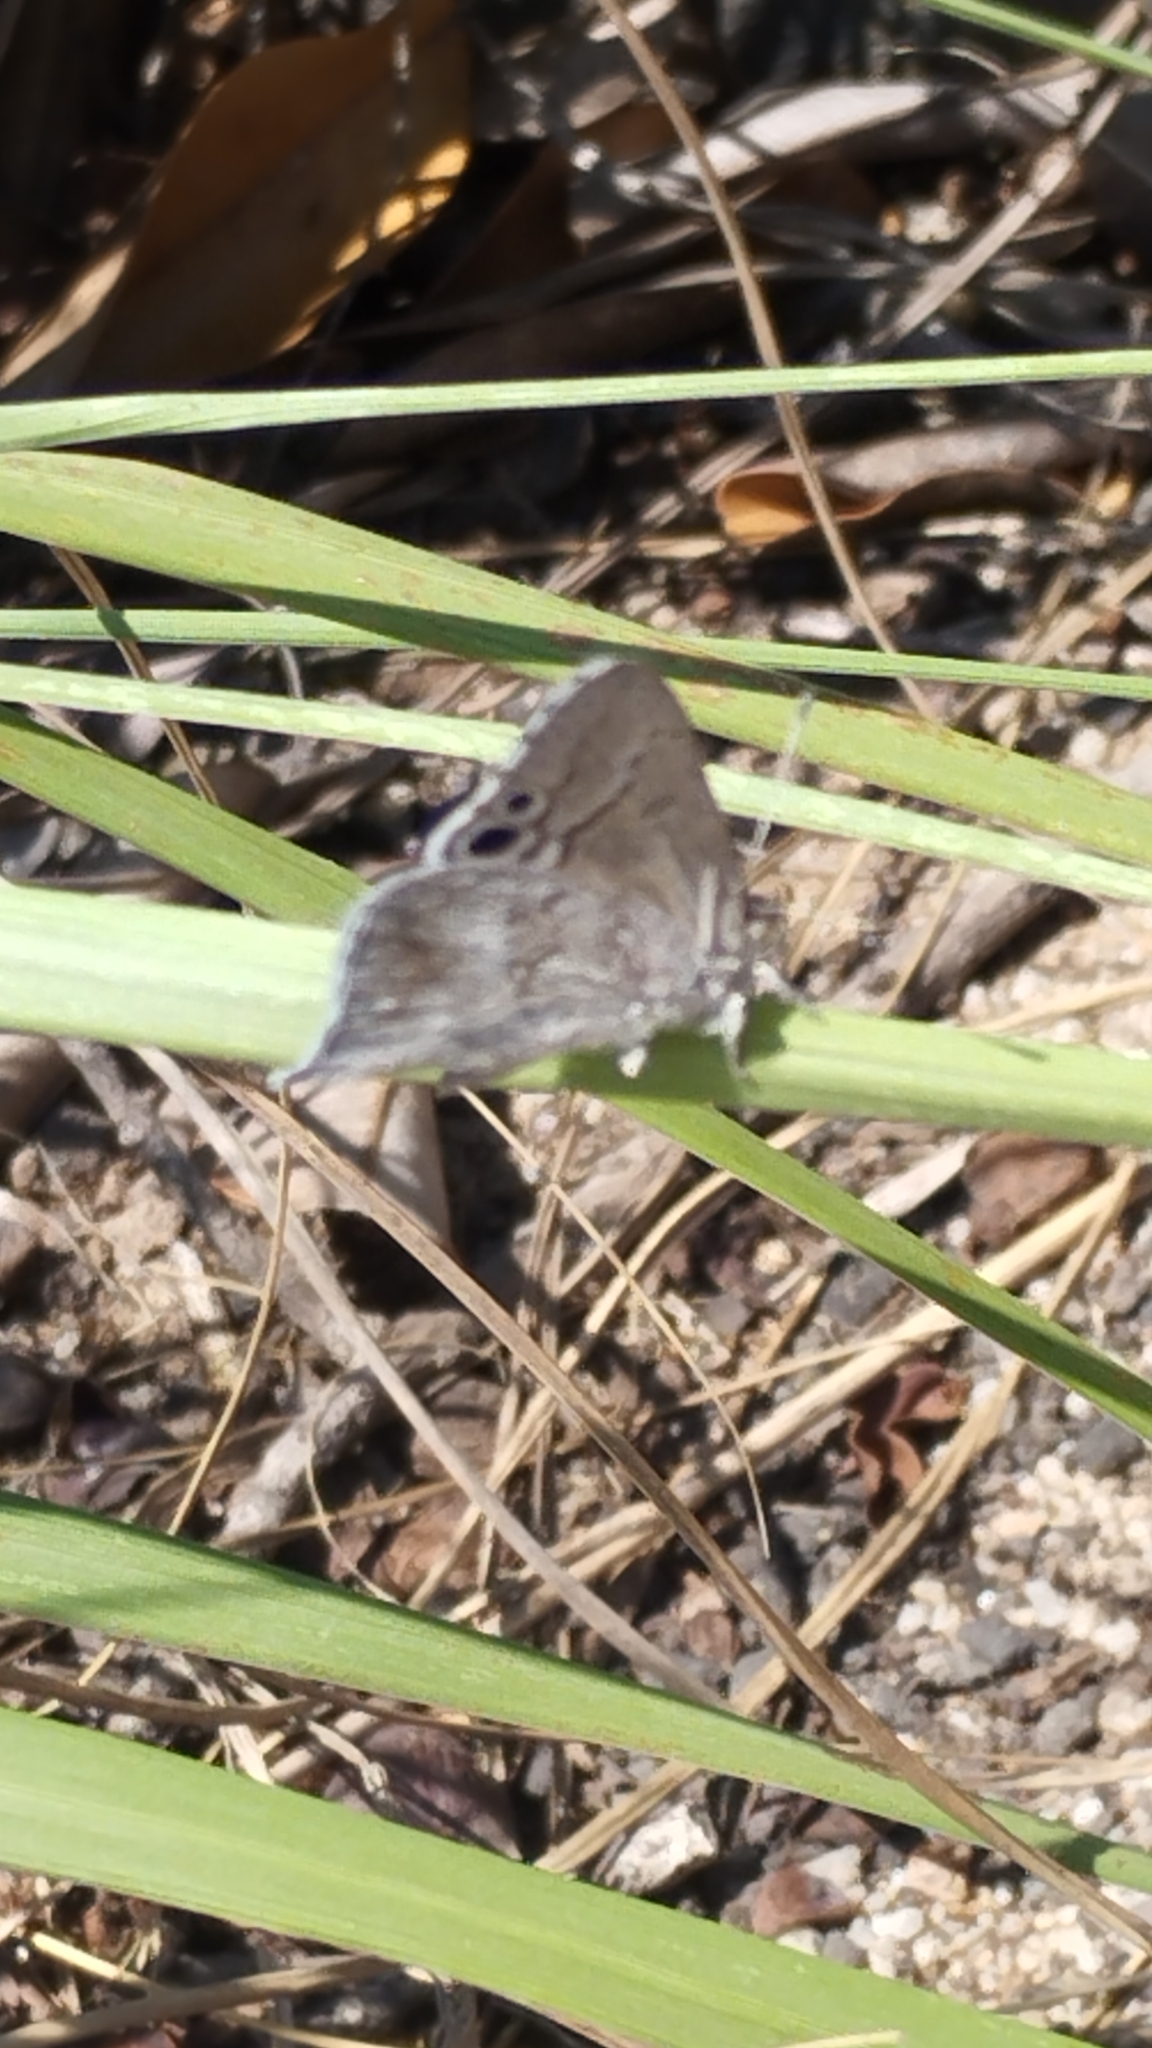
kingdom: Animalia
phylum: Arthropoda
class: Insecta
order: Lepidoptera
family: Lycaenidae
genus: Leptomyrina
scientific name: Leptomyrina henningi
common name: Henning's black-eye
